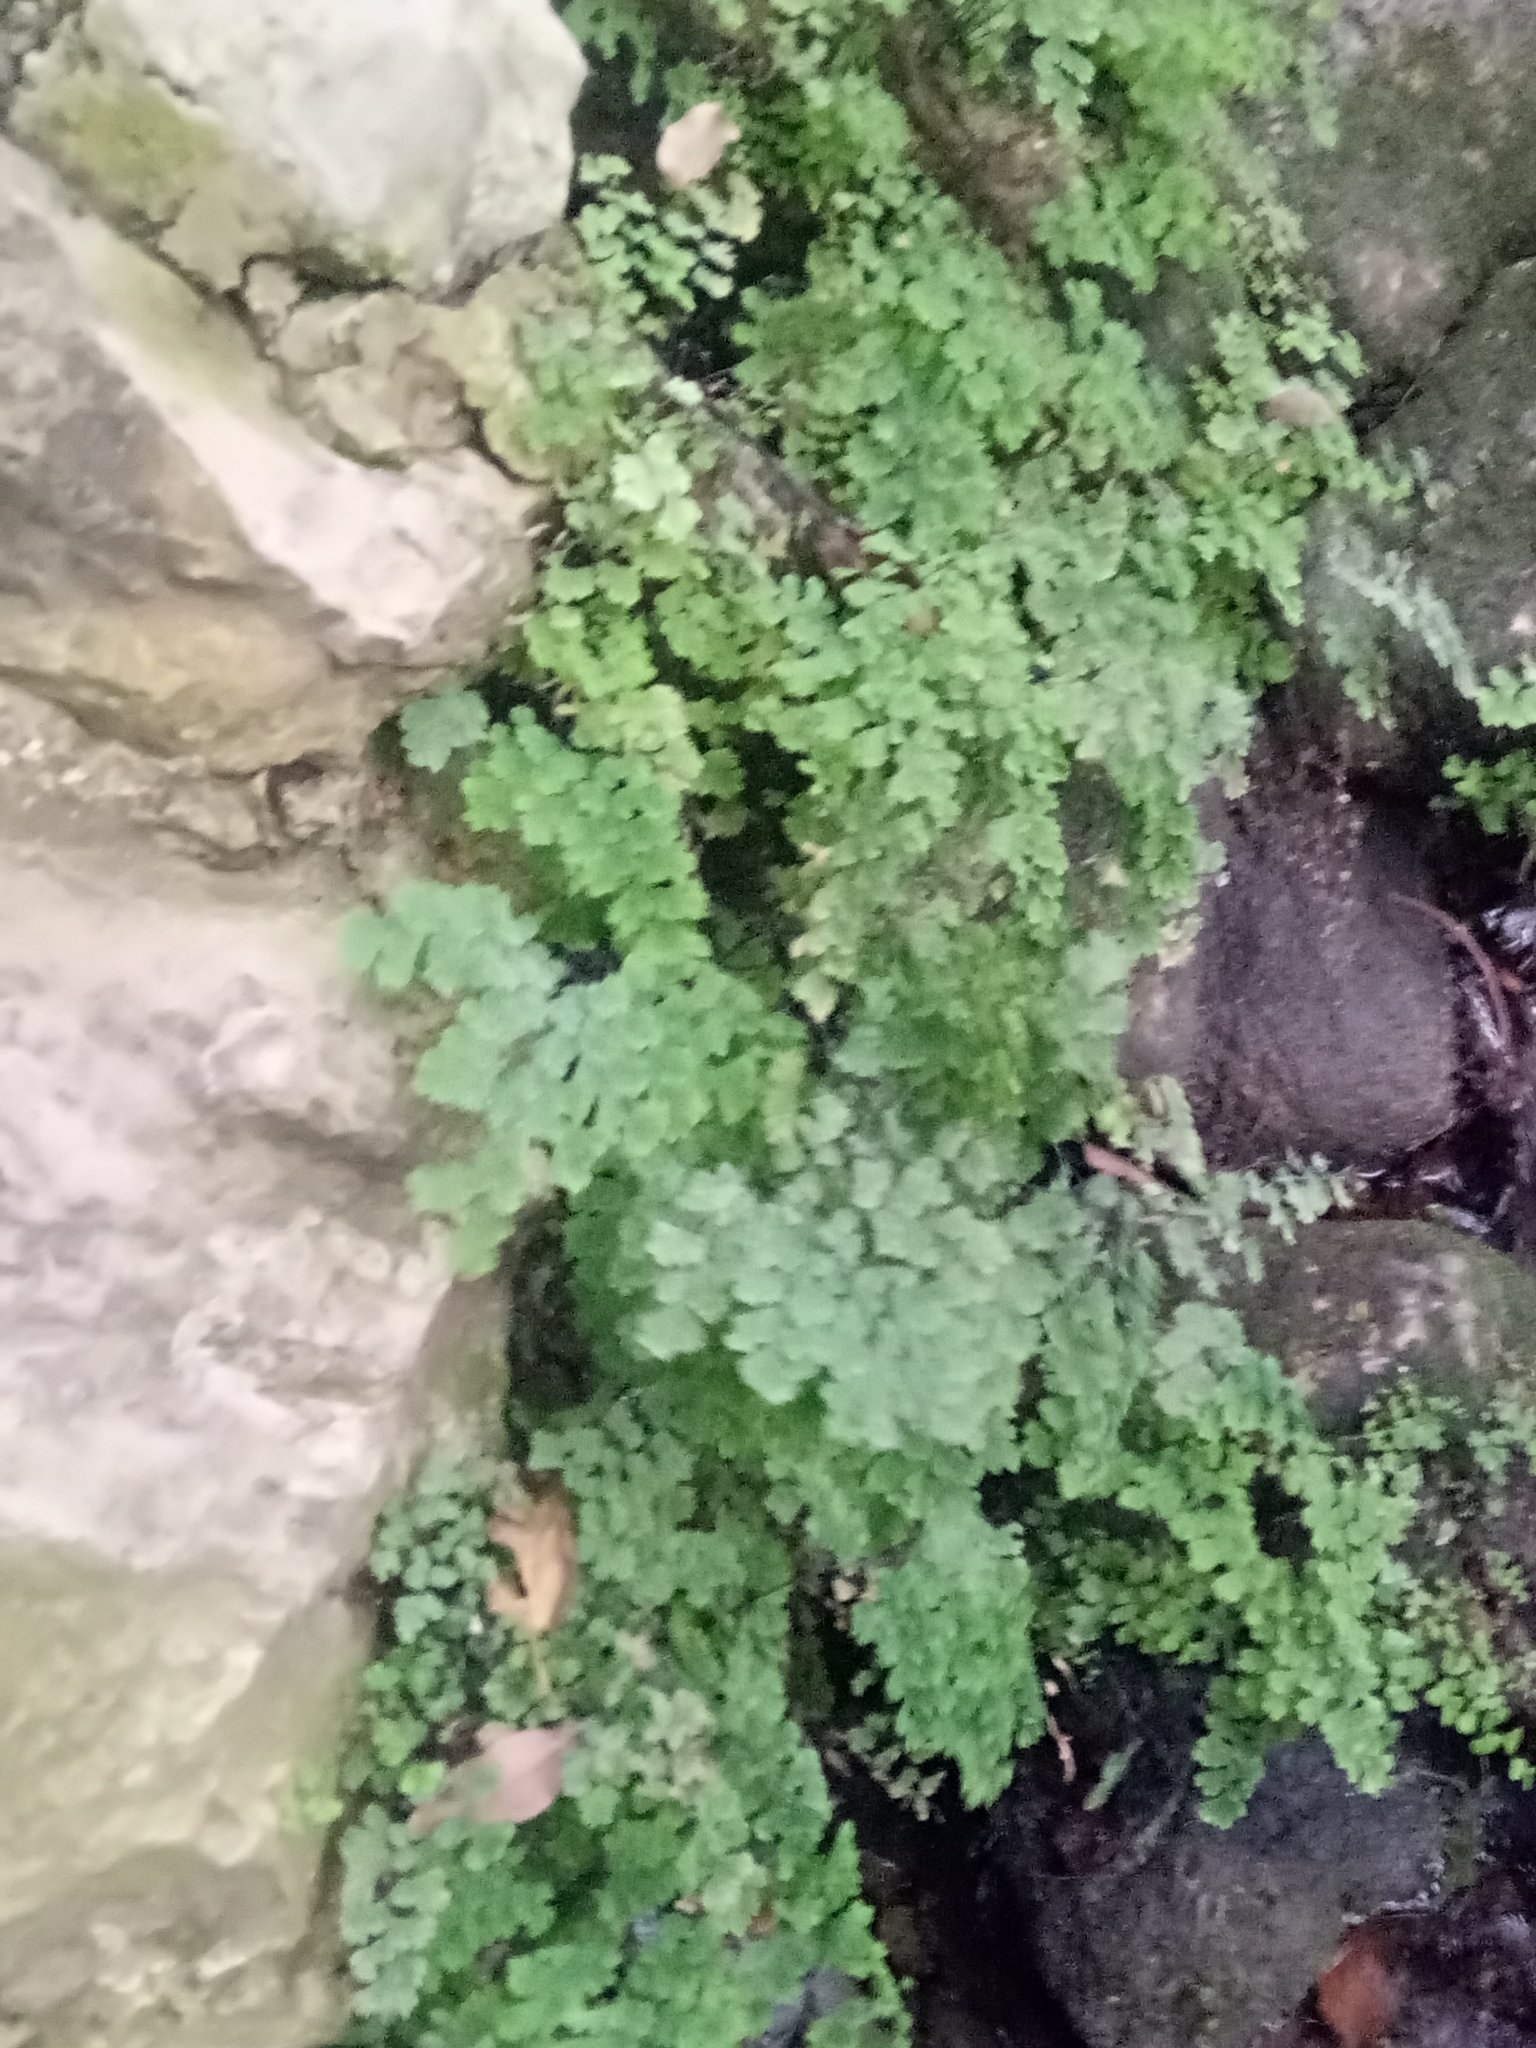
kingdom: Plantae
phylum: Tracheophyta
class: Polypodiopsida
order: Polypodiales
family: Pteridaceae
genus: Adiantum
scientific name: Adiantum capillus-veneris
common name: Maidenhair fern
